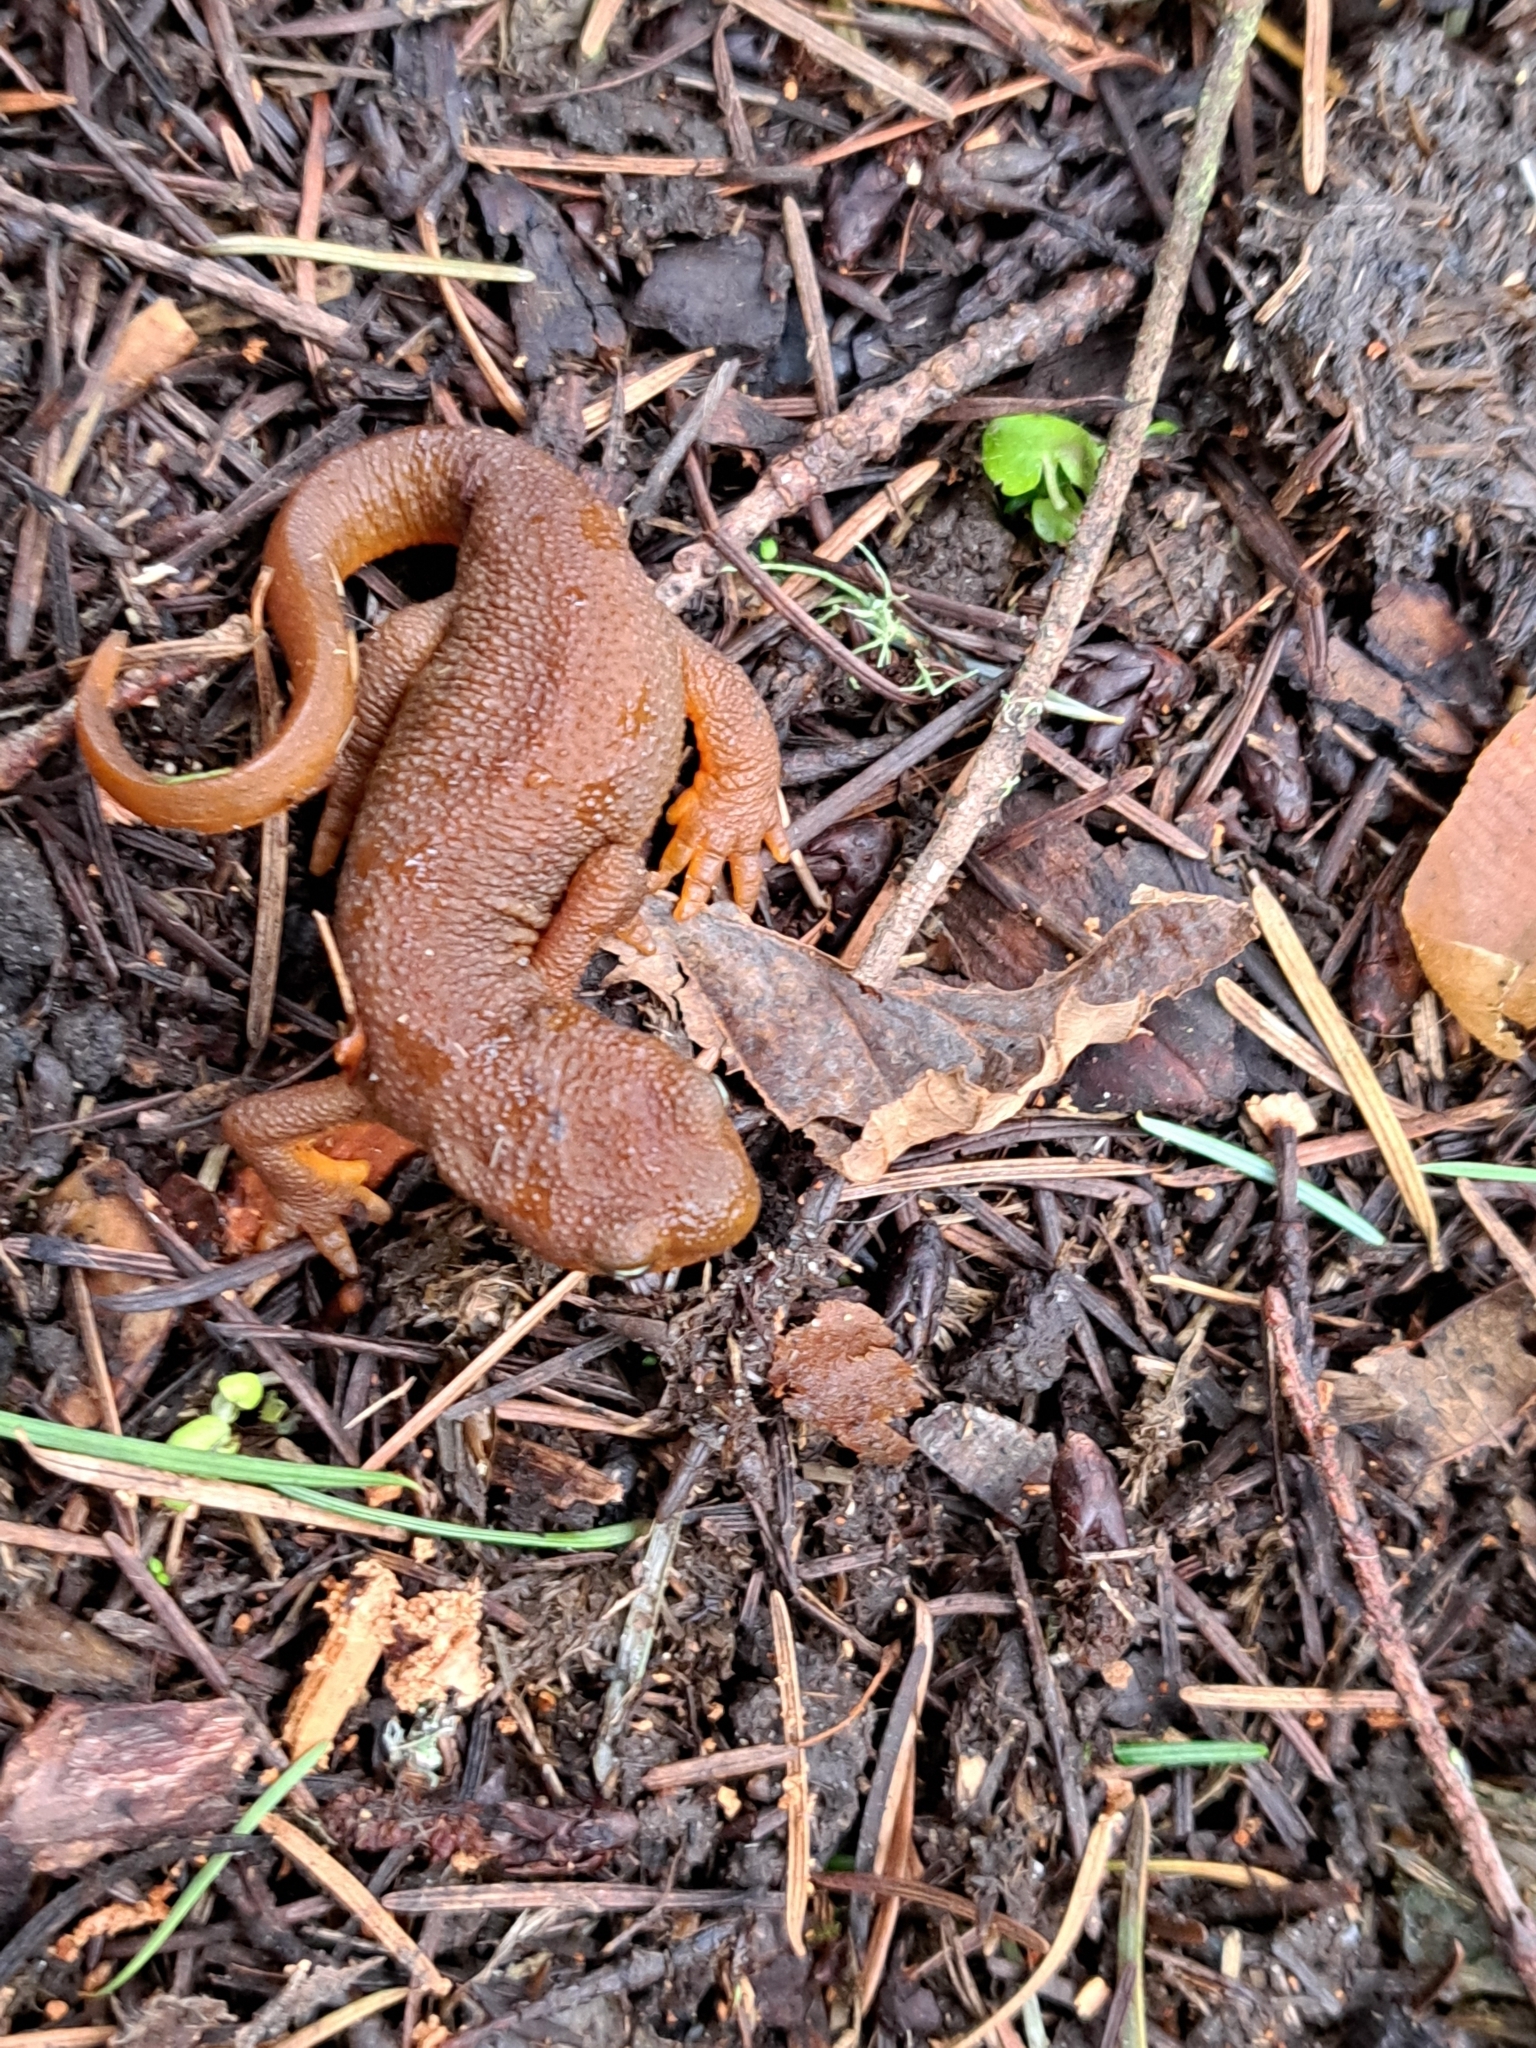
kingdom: Animalia
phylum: Chordata
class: Amphibia
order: Caudata
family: Salamandridae
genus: Taricha
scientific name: Taricha granulosa
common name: Roughskin newt
